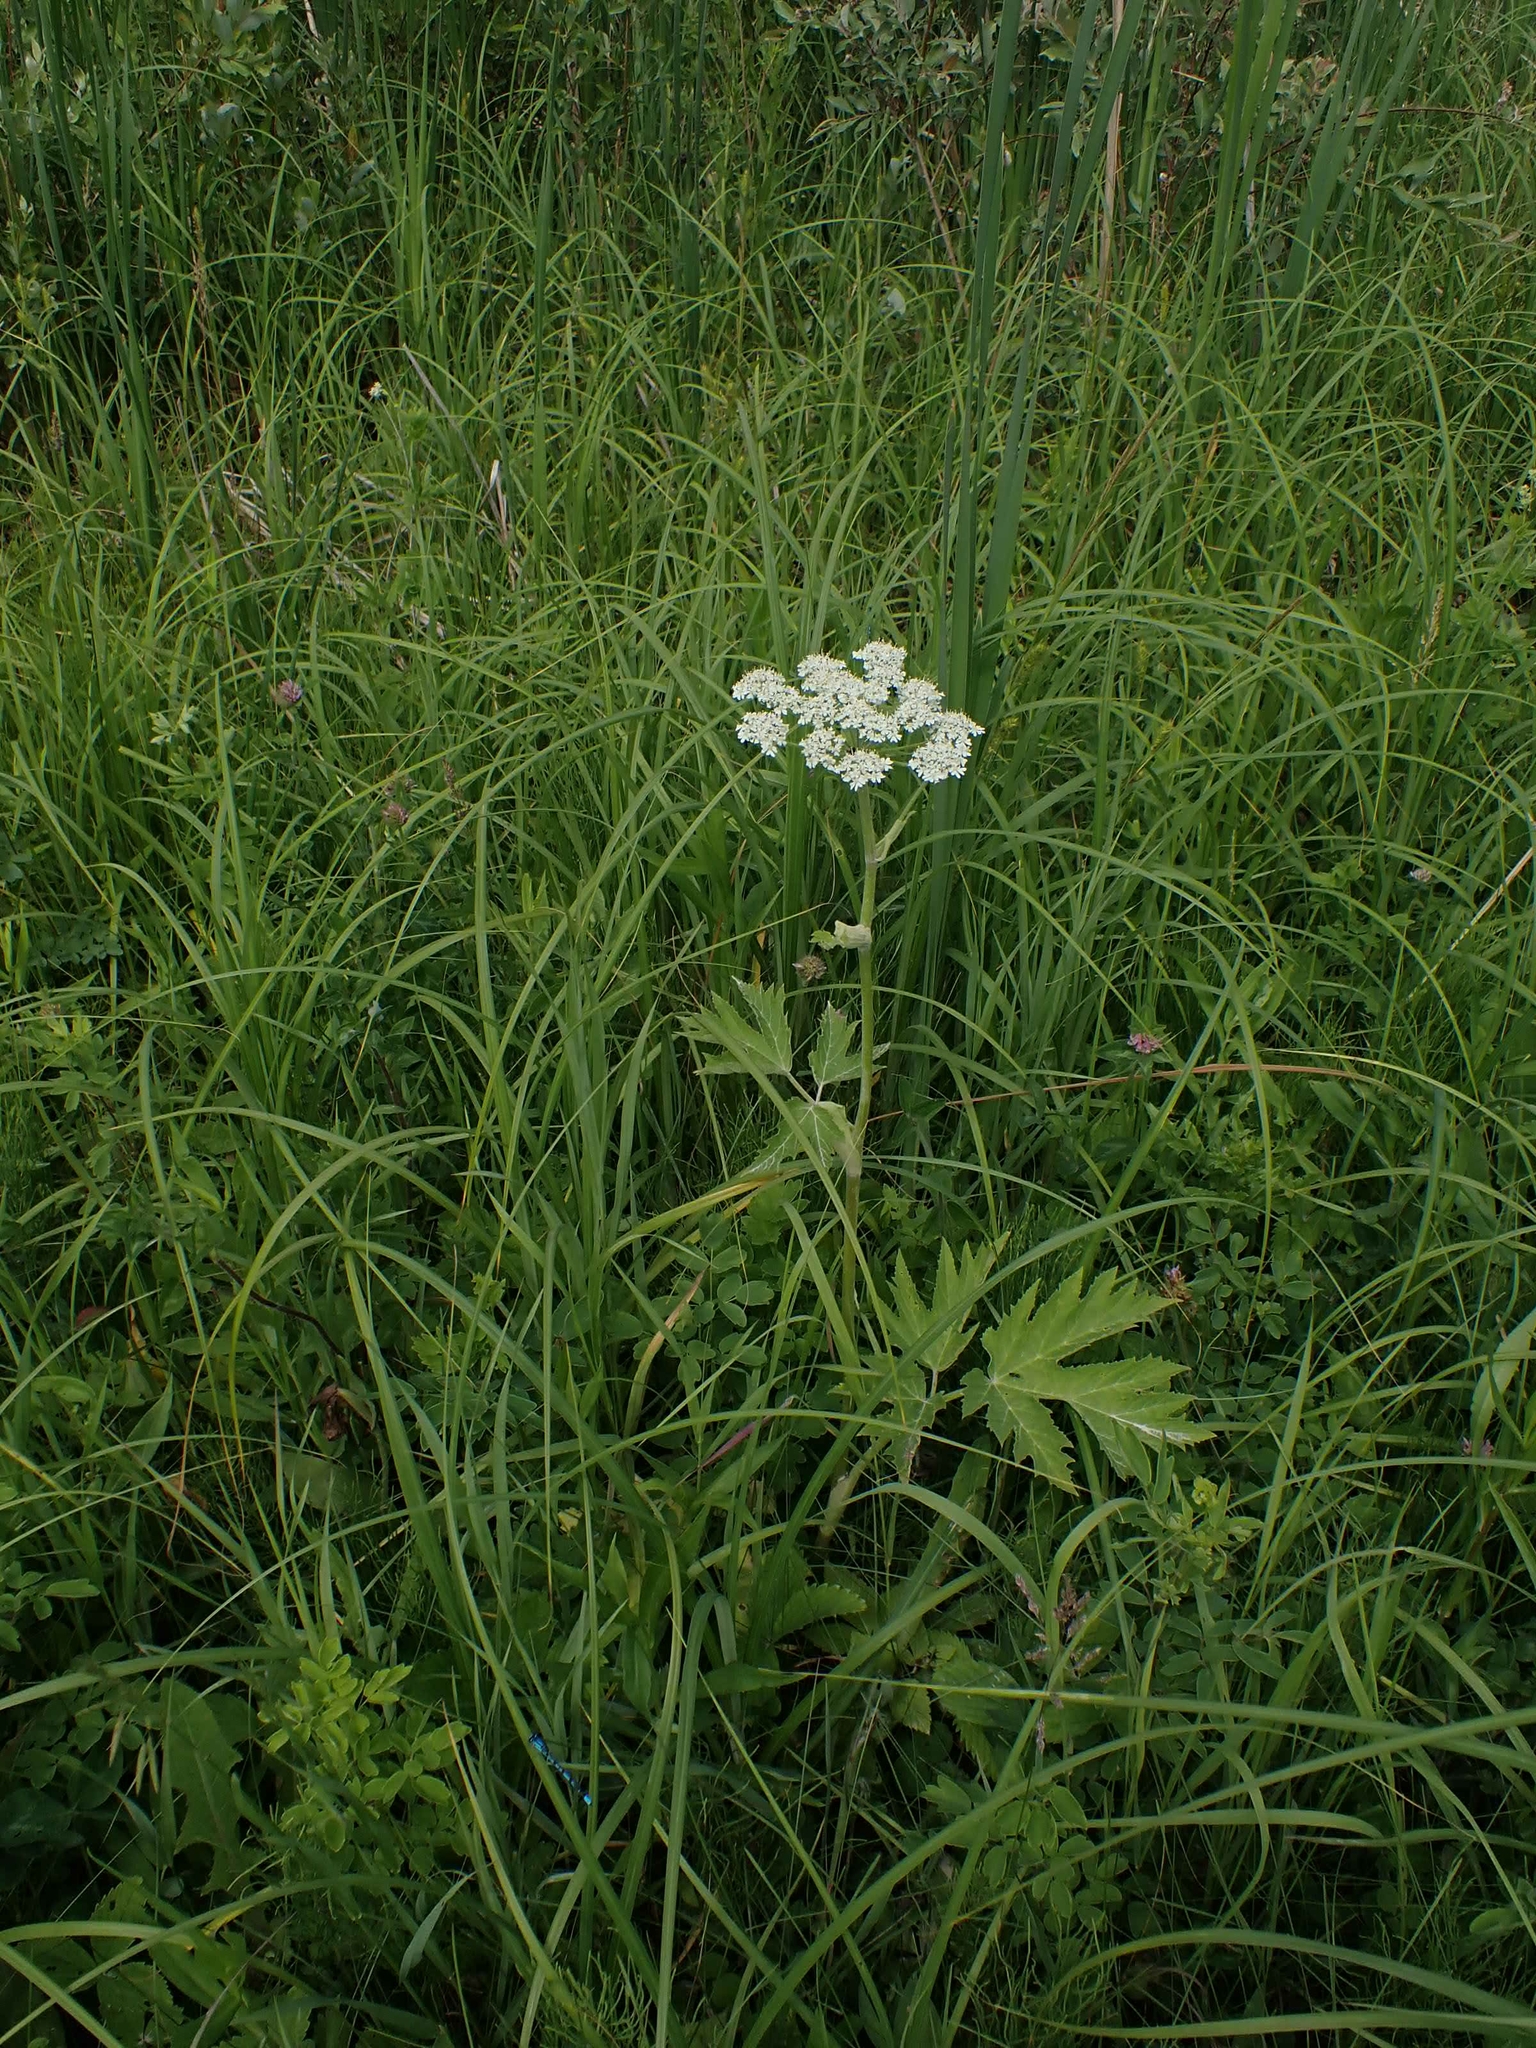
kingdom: Plantae
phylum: Tracheophyta
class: Magnoliopsida
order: Apiales
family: Apiaceae
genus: Heracleum
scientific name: Heracleum maximum
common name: American cow parsnip
